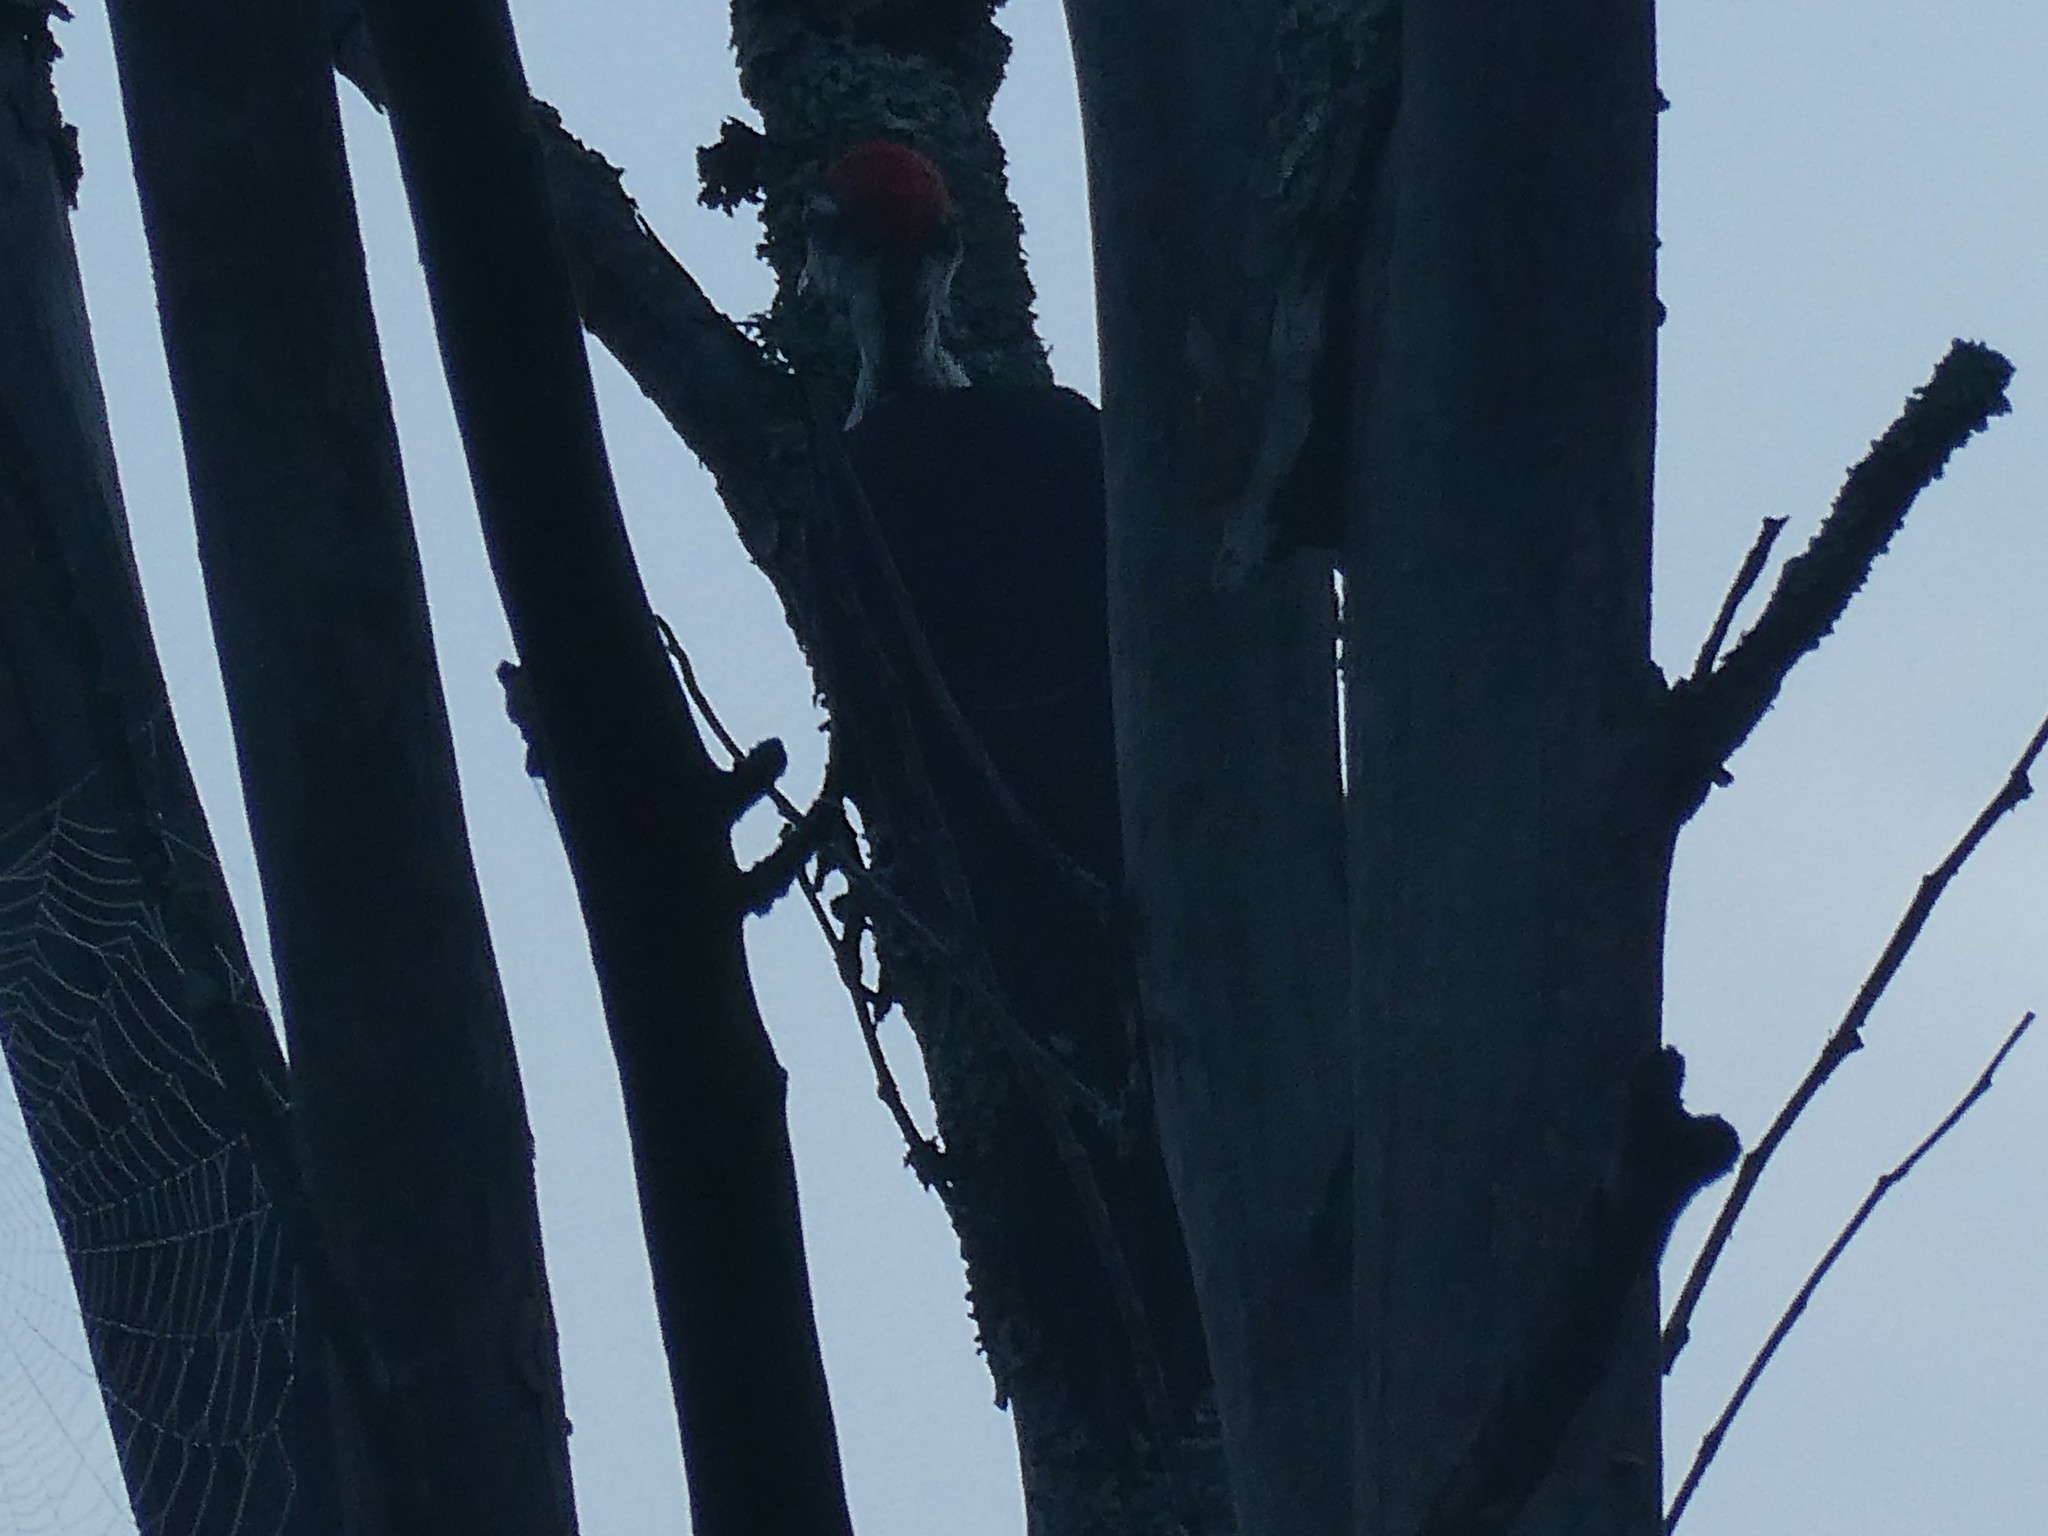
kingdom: Animalia
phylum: Chordata
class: Aves
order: Piciformes
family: Picidae
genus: Dryocopus
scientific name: Dryocopus pileatus
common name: Pileated woodpecker
